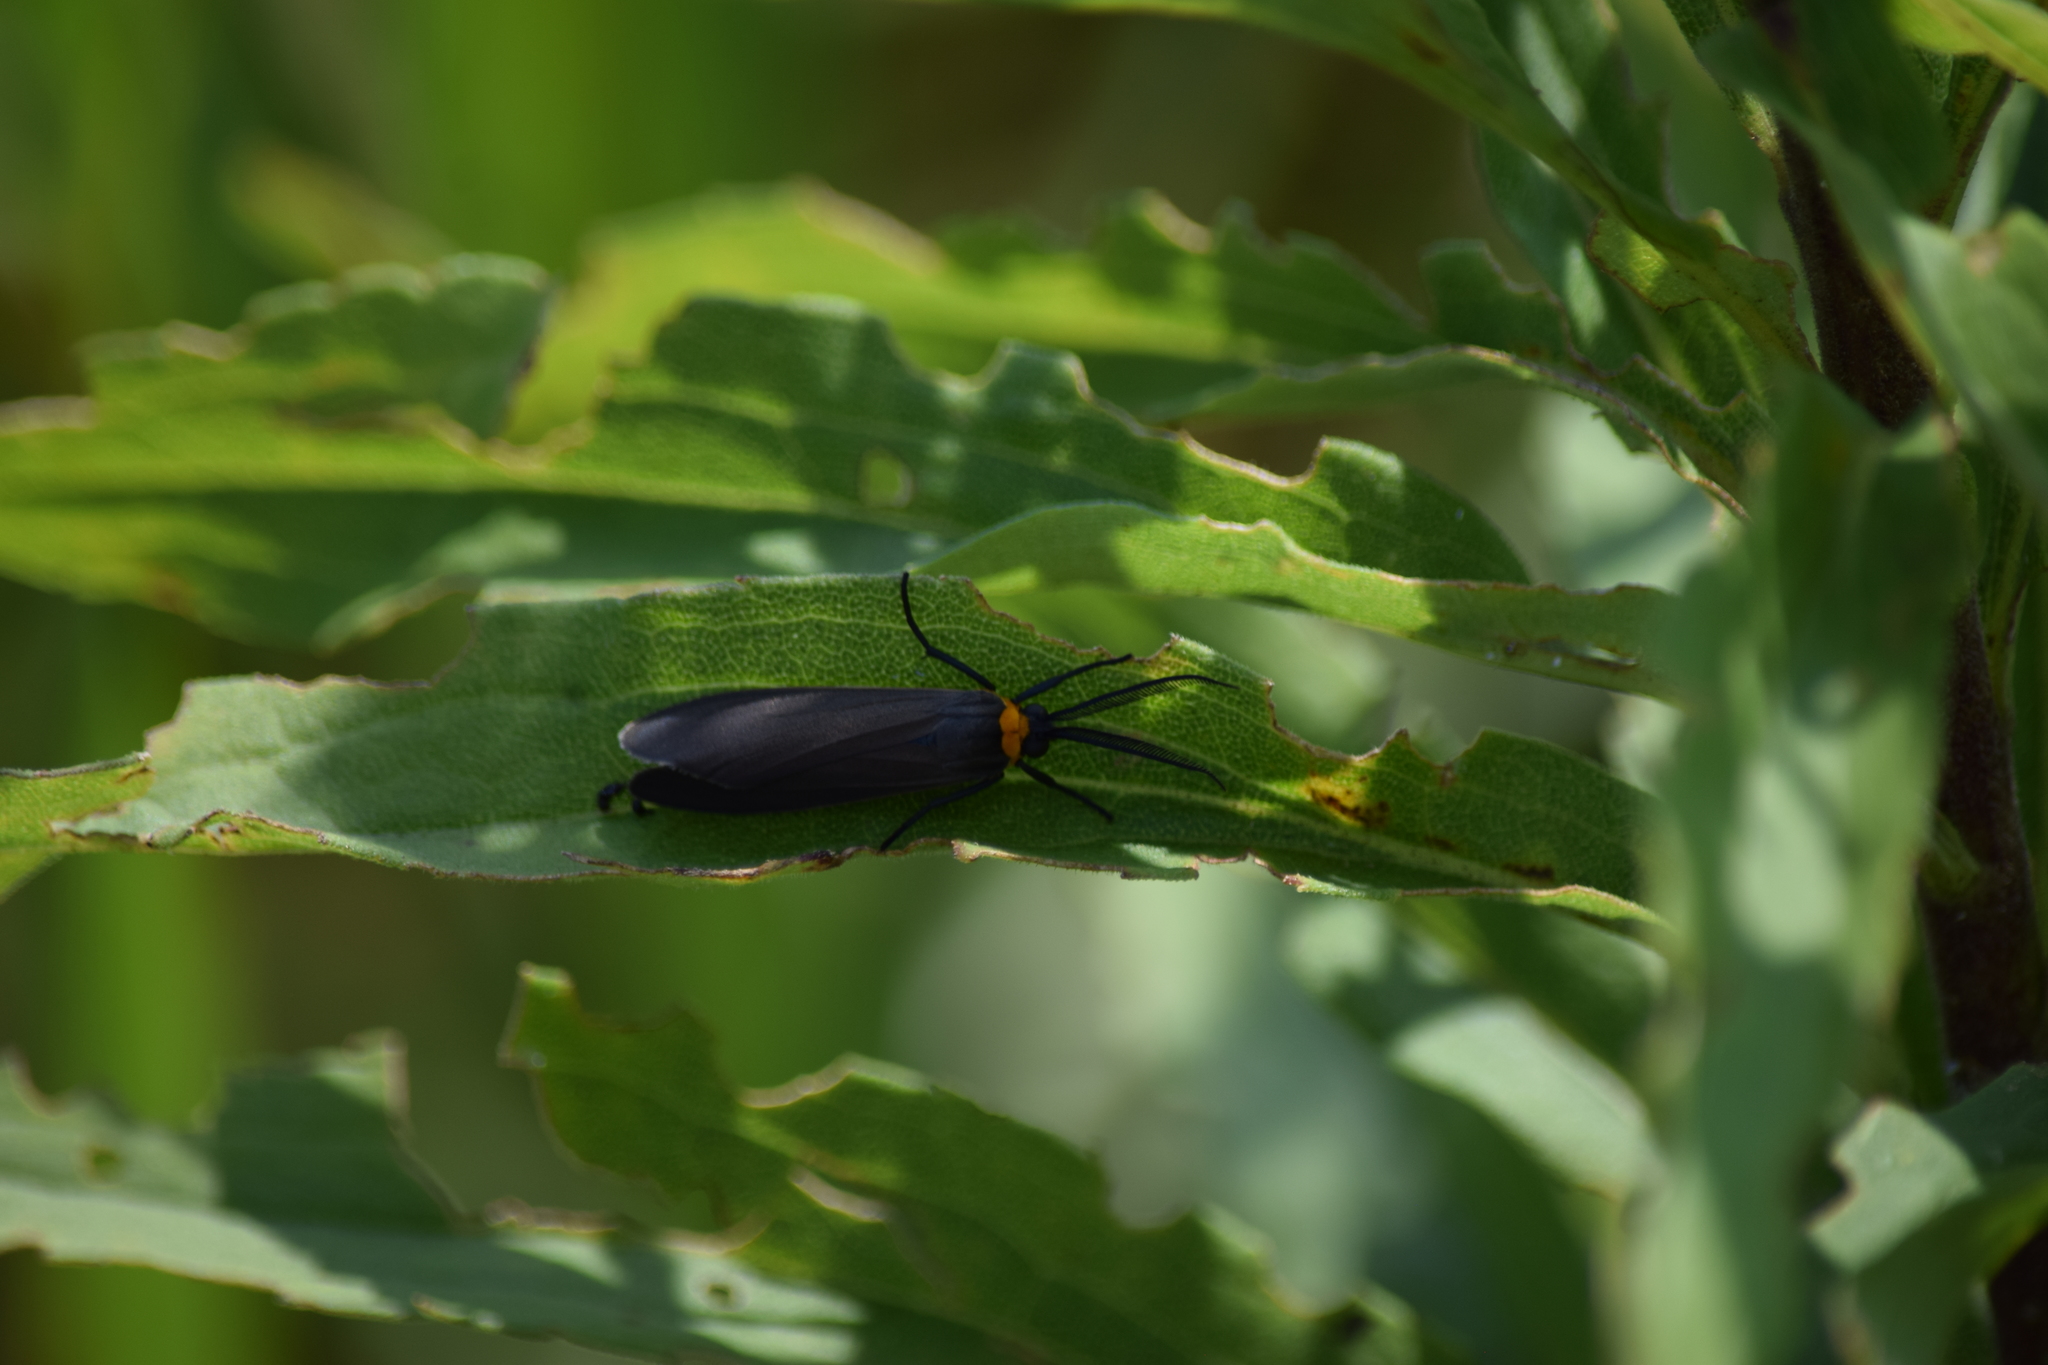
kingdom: Animalia
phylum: Arthropoda
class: Insecta
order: Lepidoptera
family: Erebidae
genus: Cisseps
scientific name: Cisseps fulvicollis
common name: Yellow-collared scape moth
